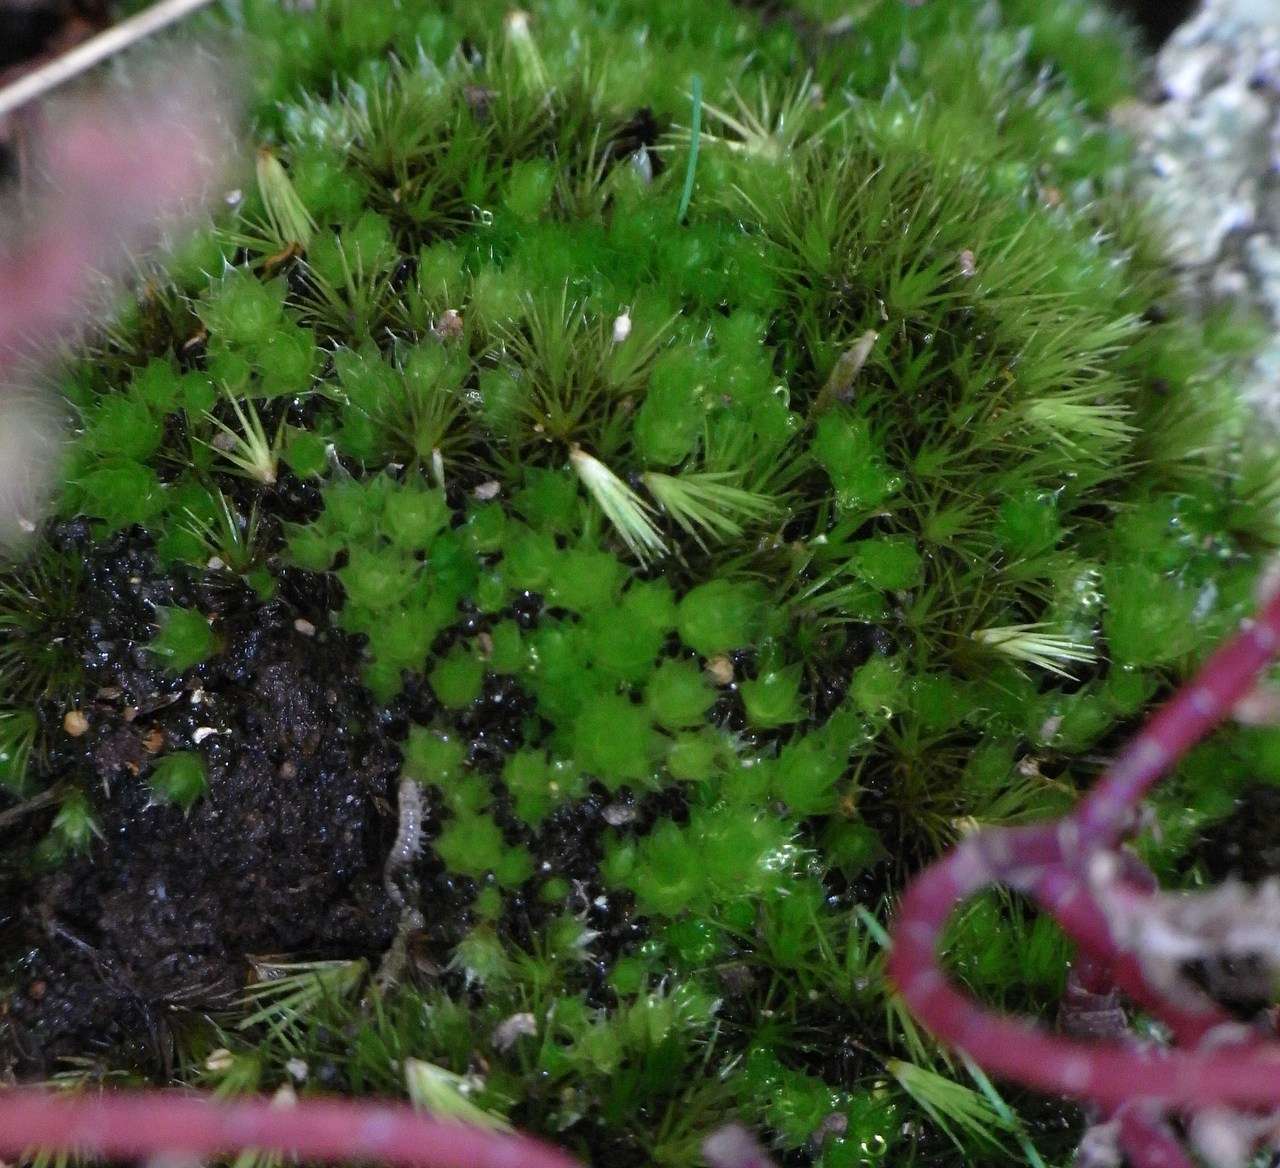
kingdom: Plantae
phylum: Bryophyta
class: Bryopsida
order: Dicranales
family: Leucobryaceae
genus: Campylopus
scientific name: Campylopus clavatus
